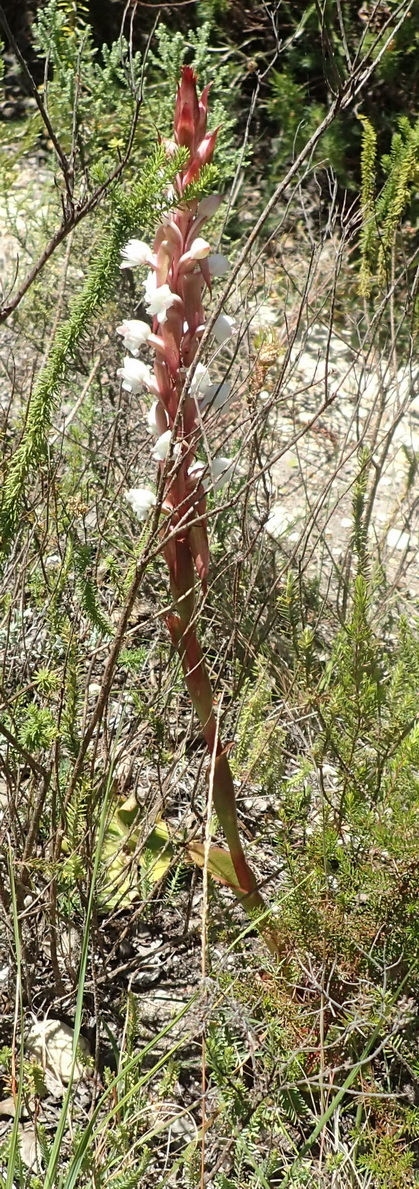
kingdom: Plantae
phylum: Tracheophyta
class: Liliopsida
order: Asparagales
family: Orchidaceae
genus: Satyrium
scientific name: Satyrium acuminatum
